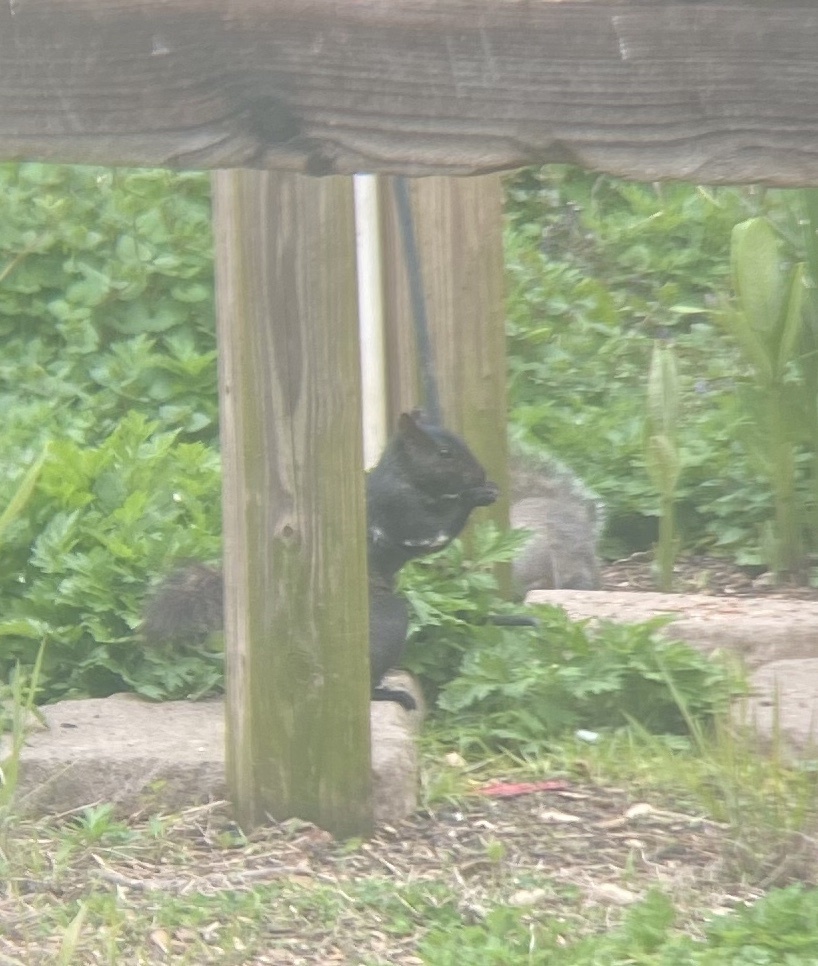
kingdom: Animalia
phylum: Chordata
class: Mammalia
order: Rodentia
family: Sciuridae
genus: Sciurus
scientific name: Sciurus carolinensis
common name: Eastern gray squirrel
